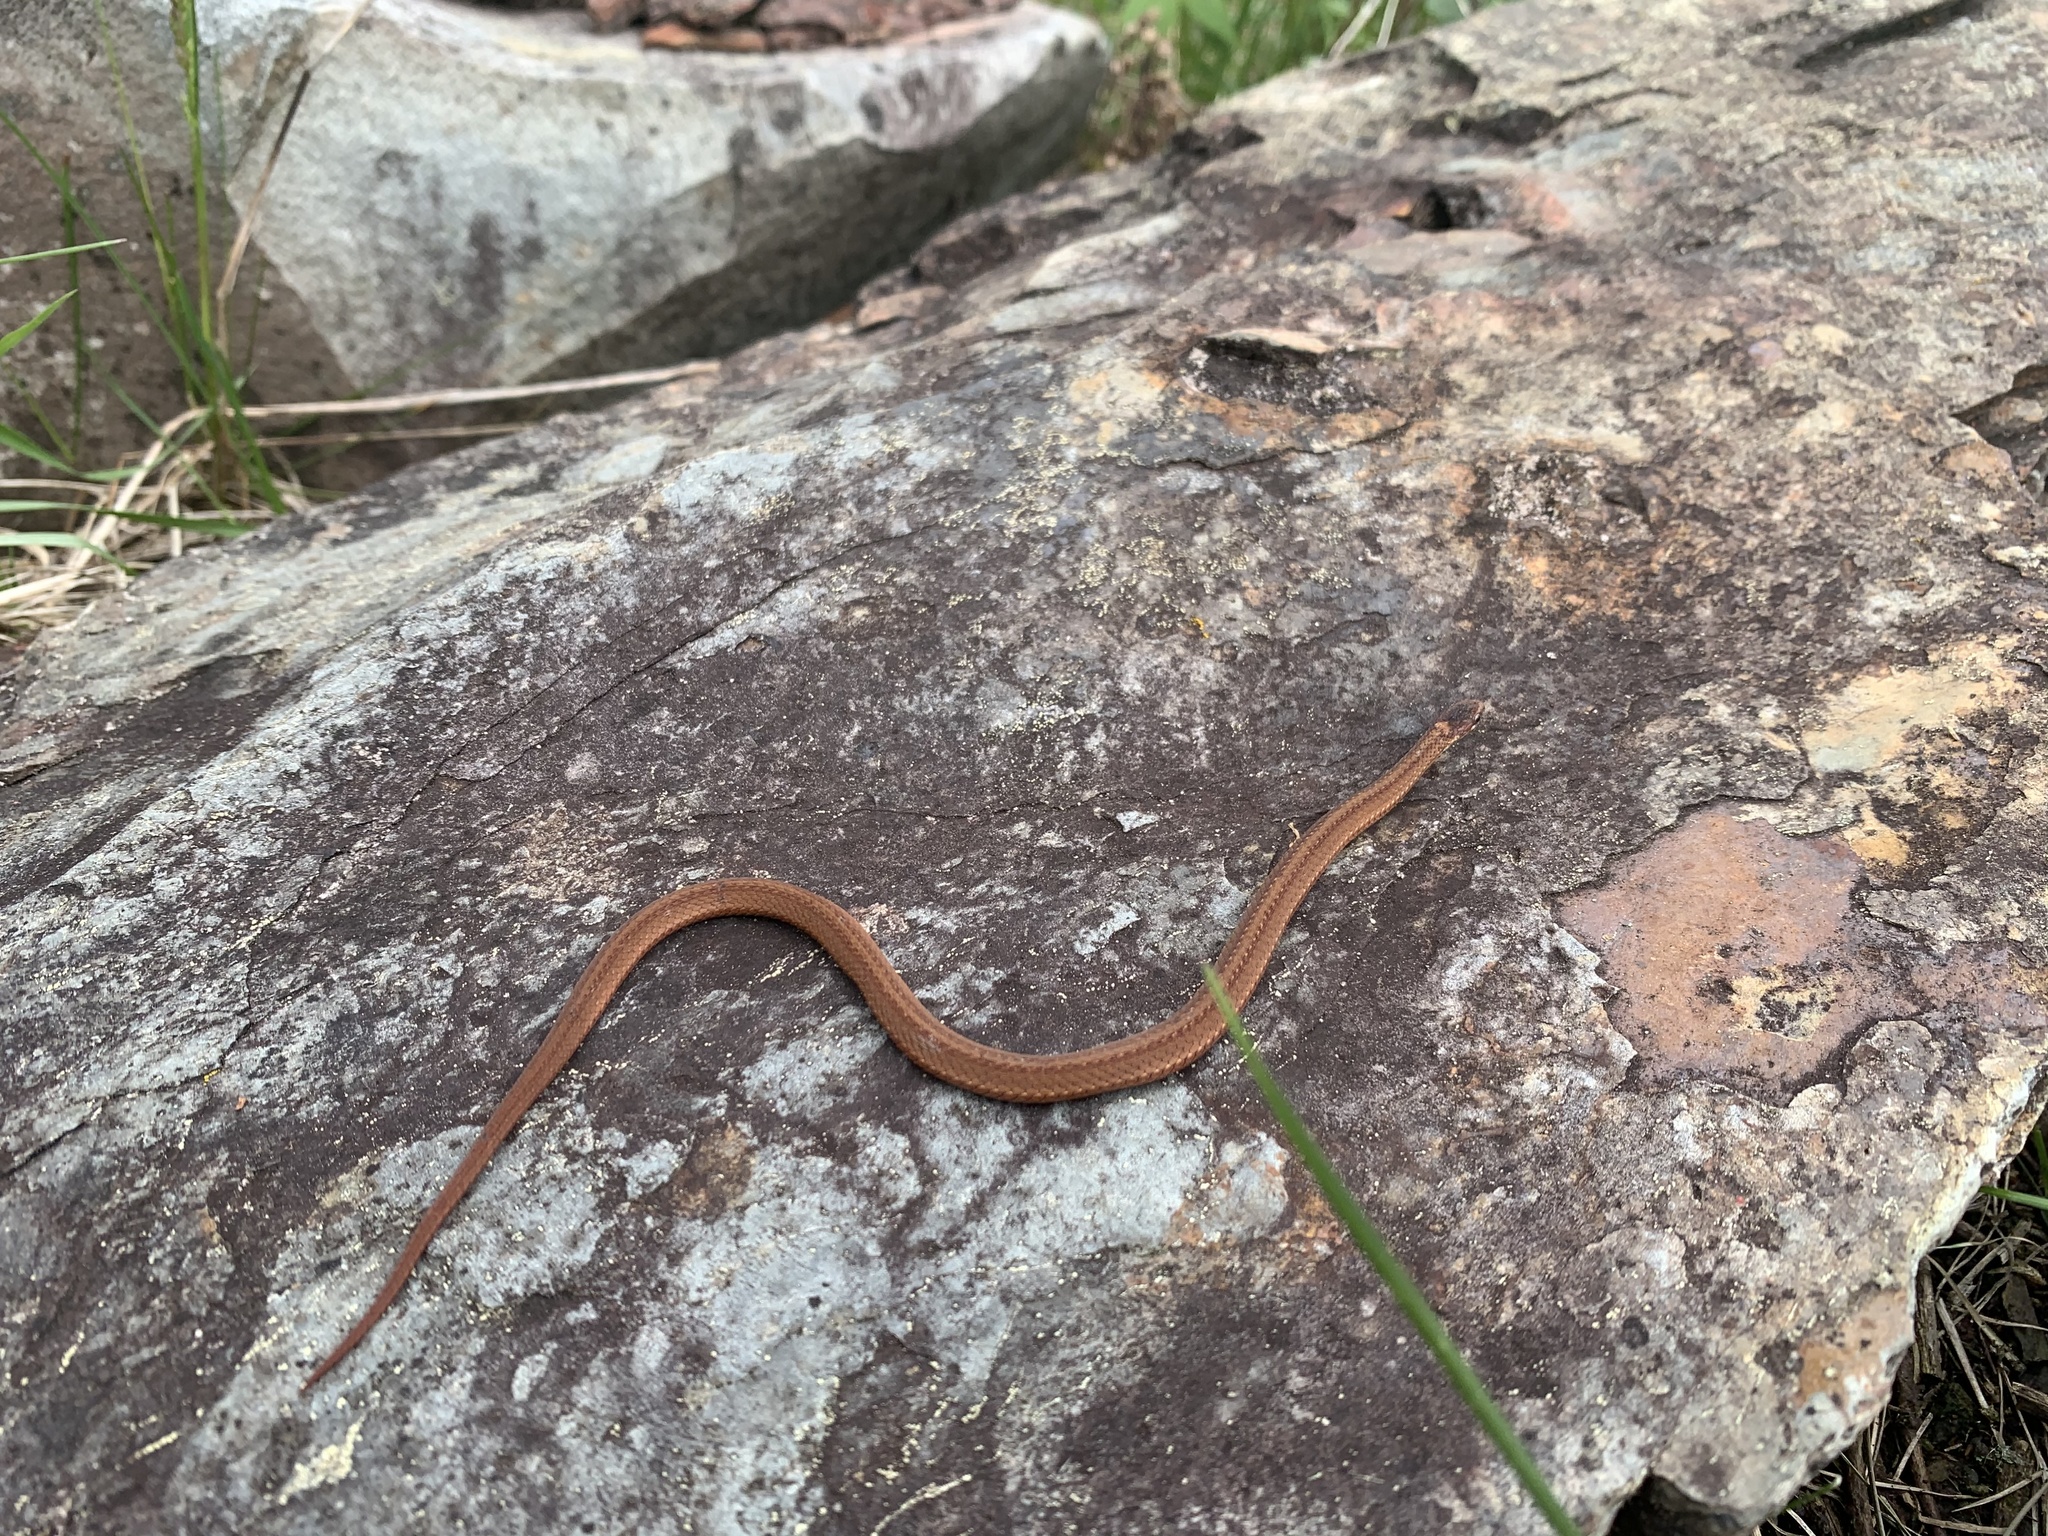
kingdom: Animalia
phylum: Chordata
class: Squamata
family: Colubridae
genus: Storeria
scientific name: Storeria occipitomaculata
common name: Redbelly snake
